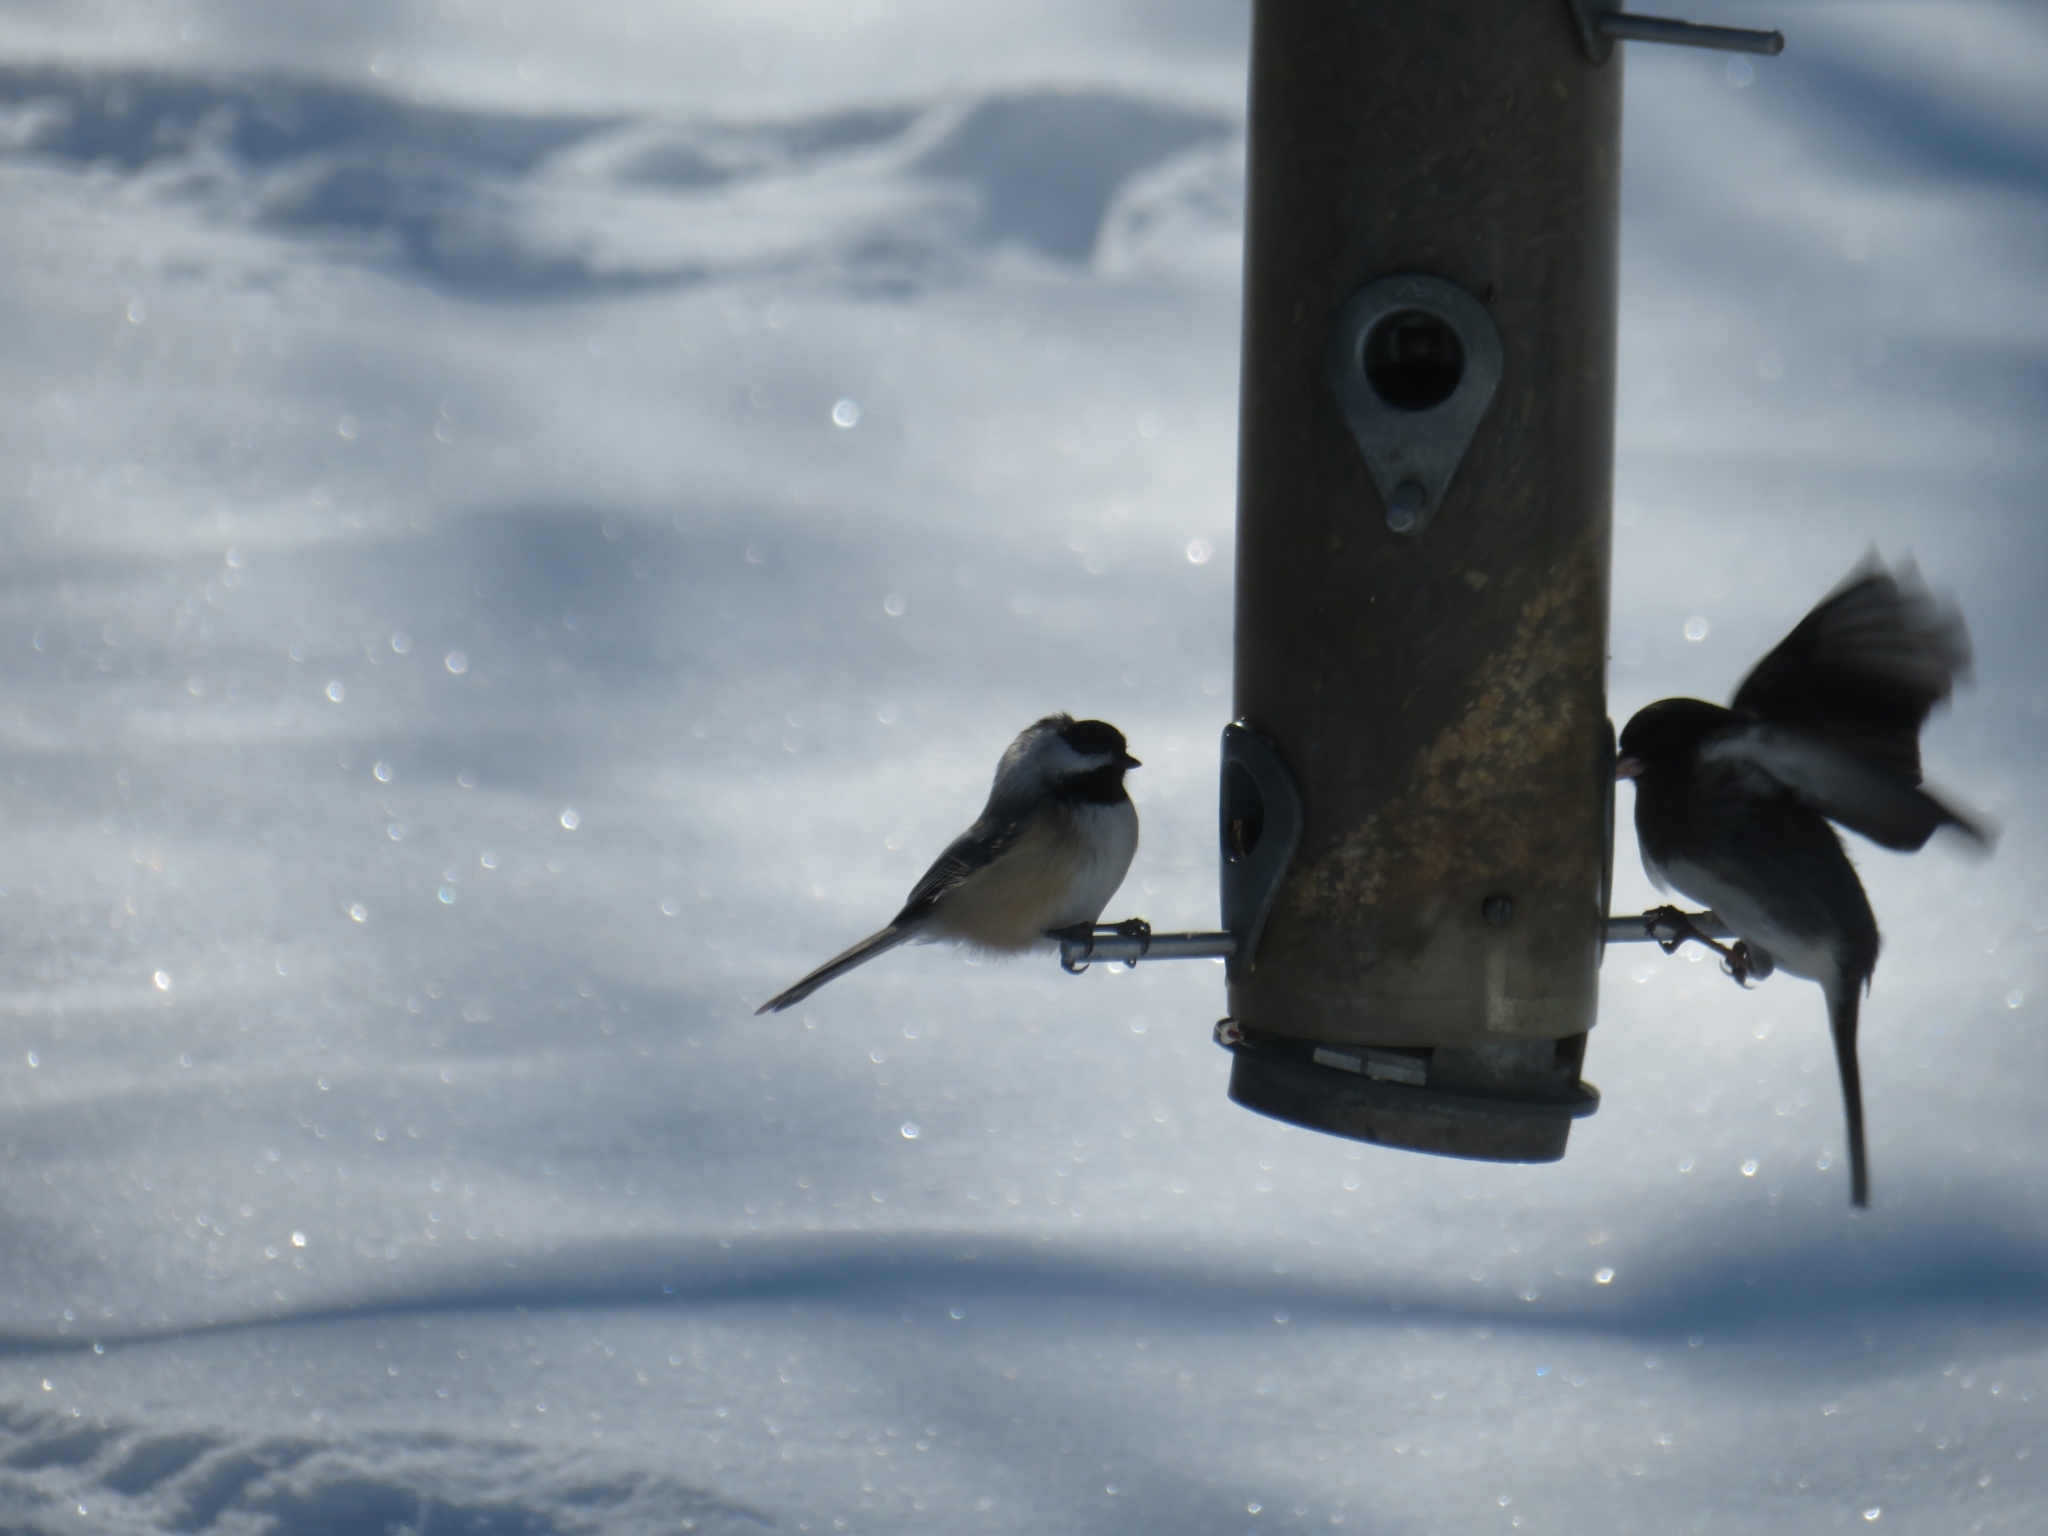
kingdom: Animalia
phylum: Chordata
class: Aves
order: Passeriformes
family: Paridae
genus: Poecile
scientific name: Poecile atricapillus
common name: Black-capped chickadee
